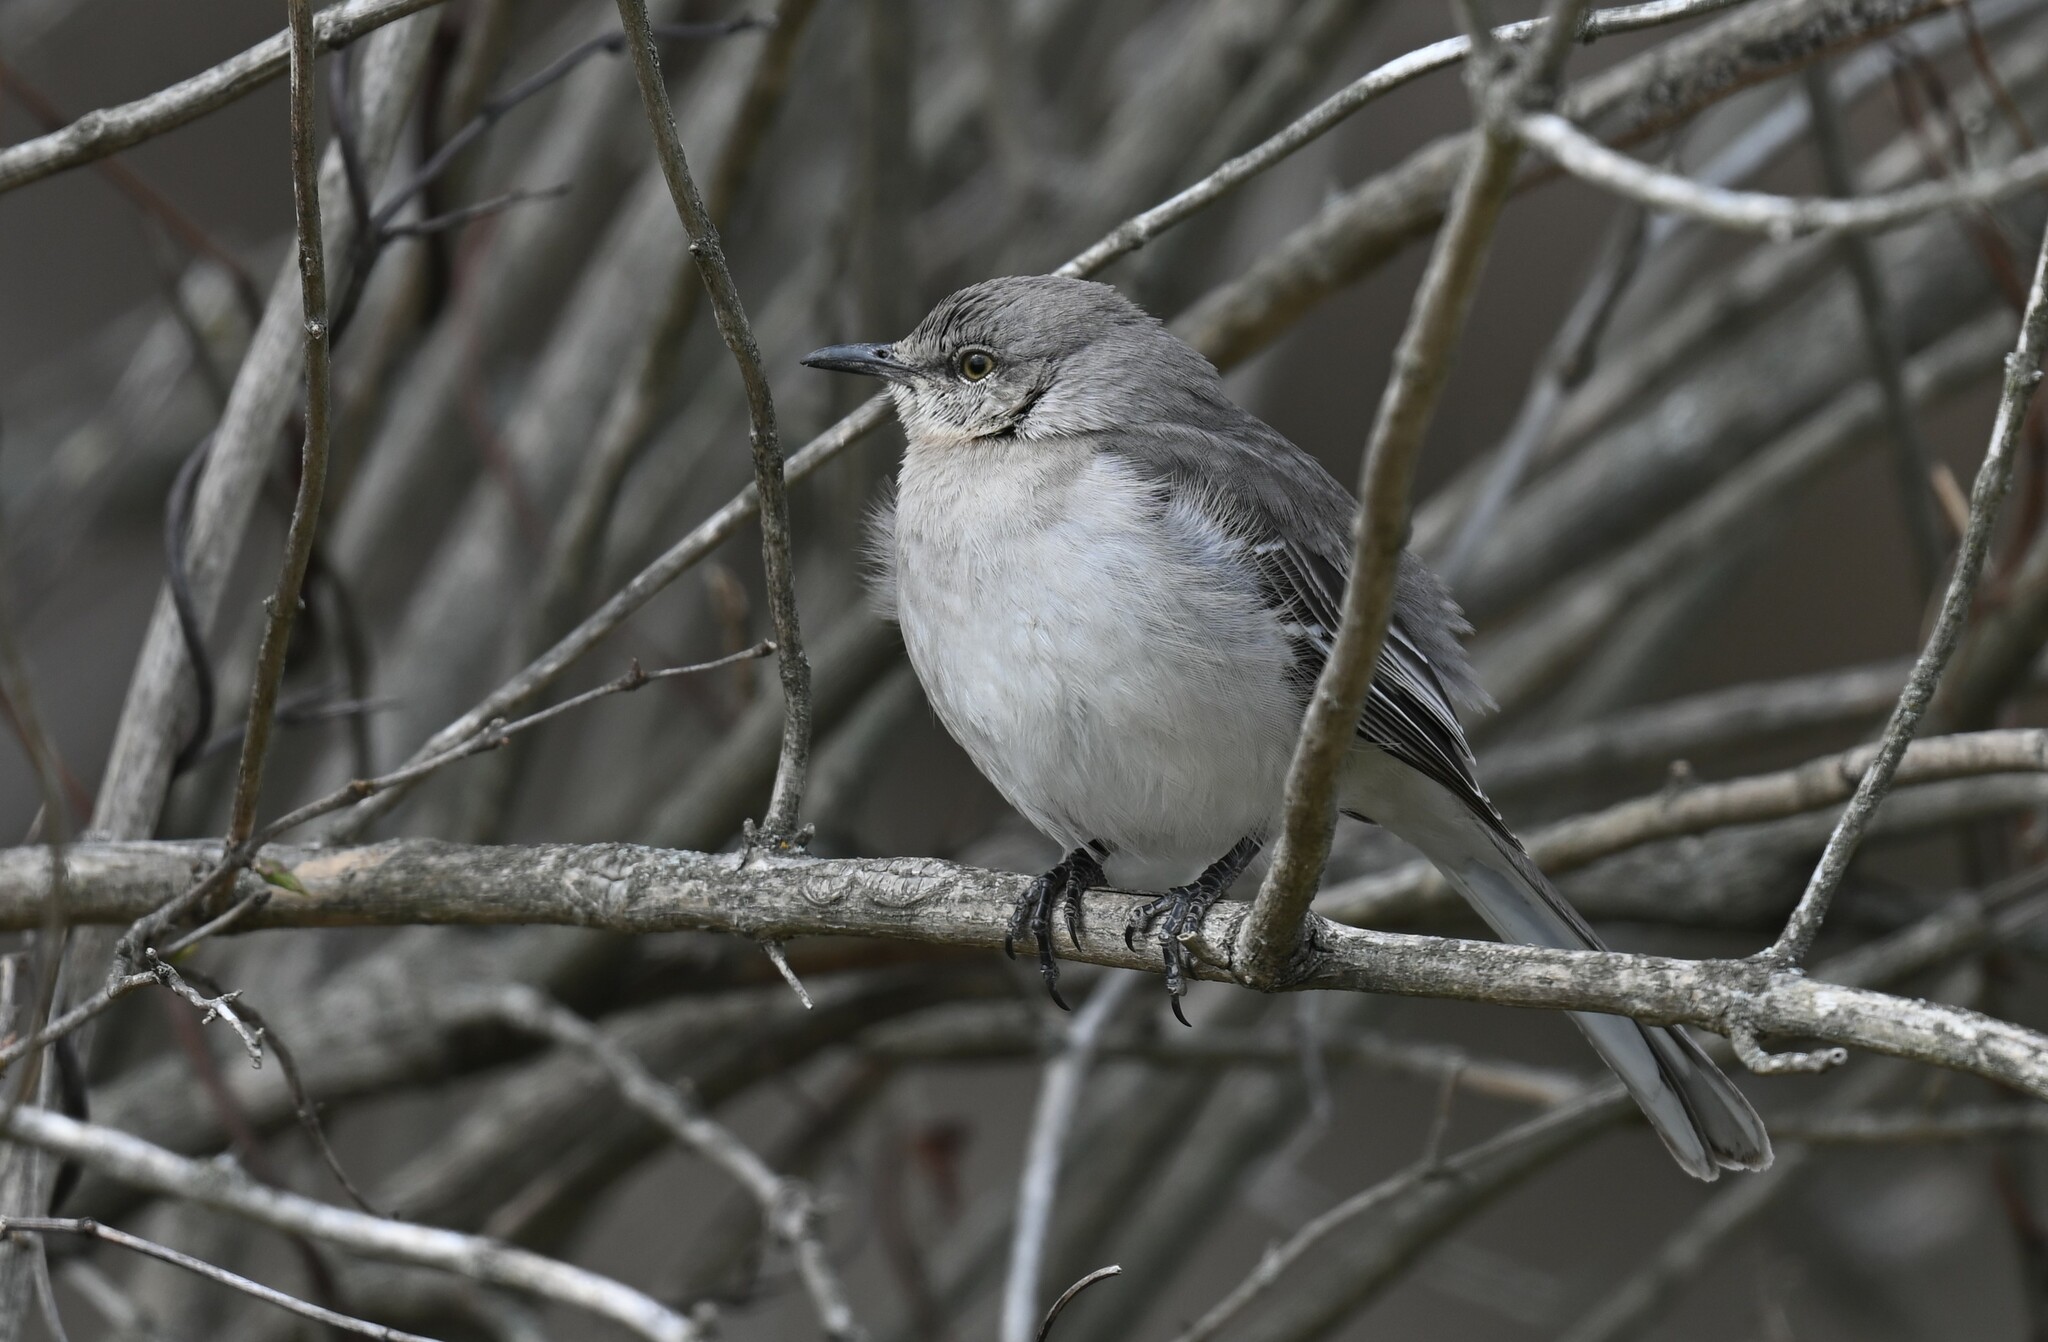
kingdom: Animalia
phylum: Chordata
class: Aves
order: Passeriformes
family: Mimidae
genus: Mimus
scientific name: Mimus polyglottos
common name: Northern mockingbird
